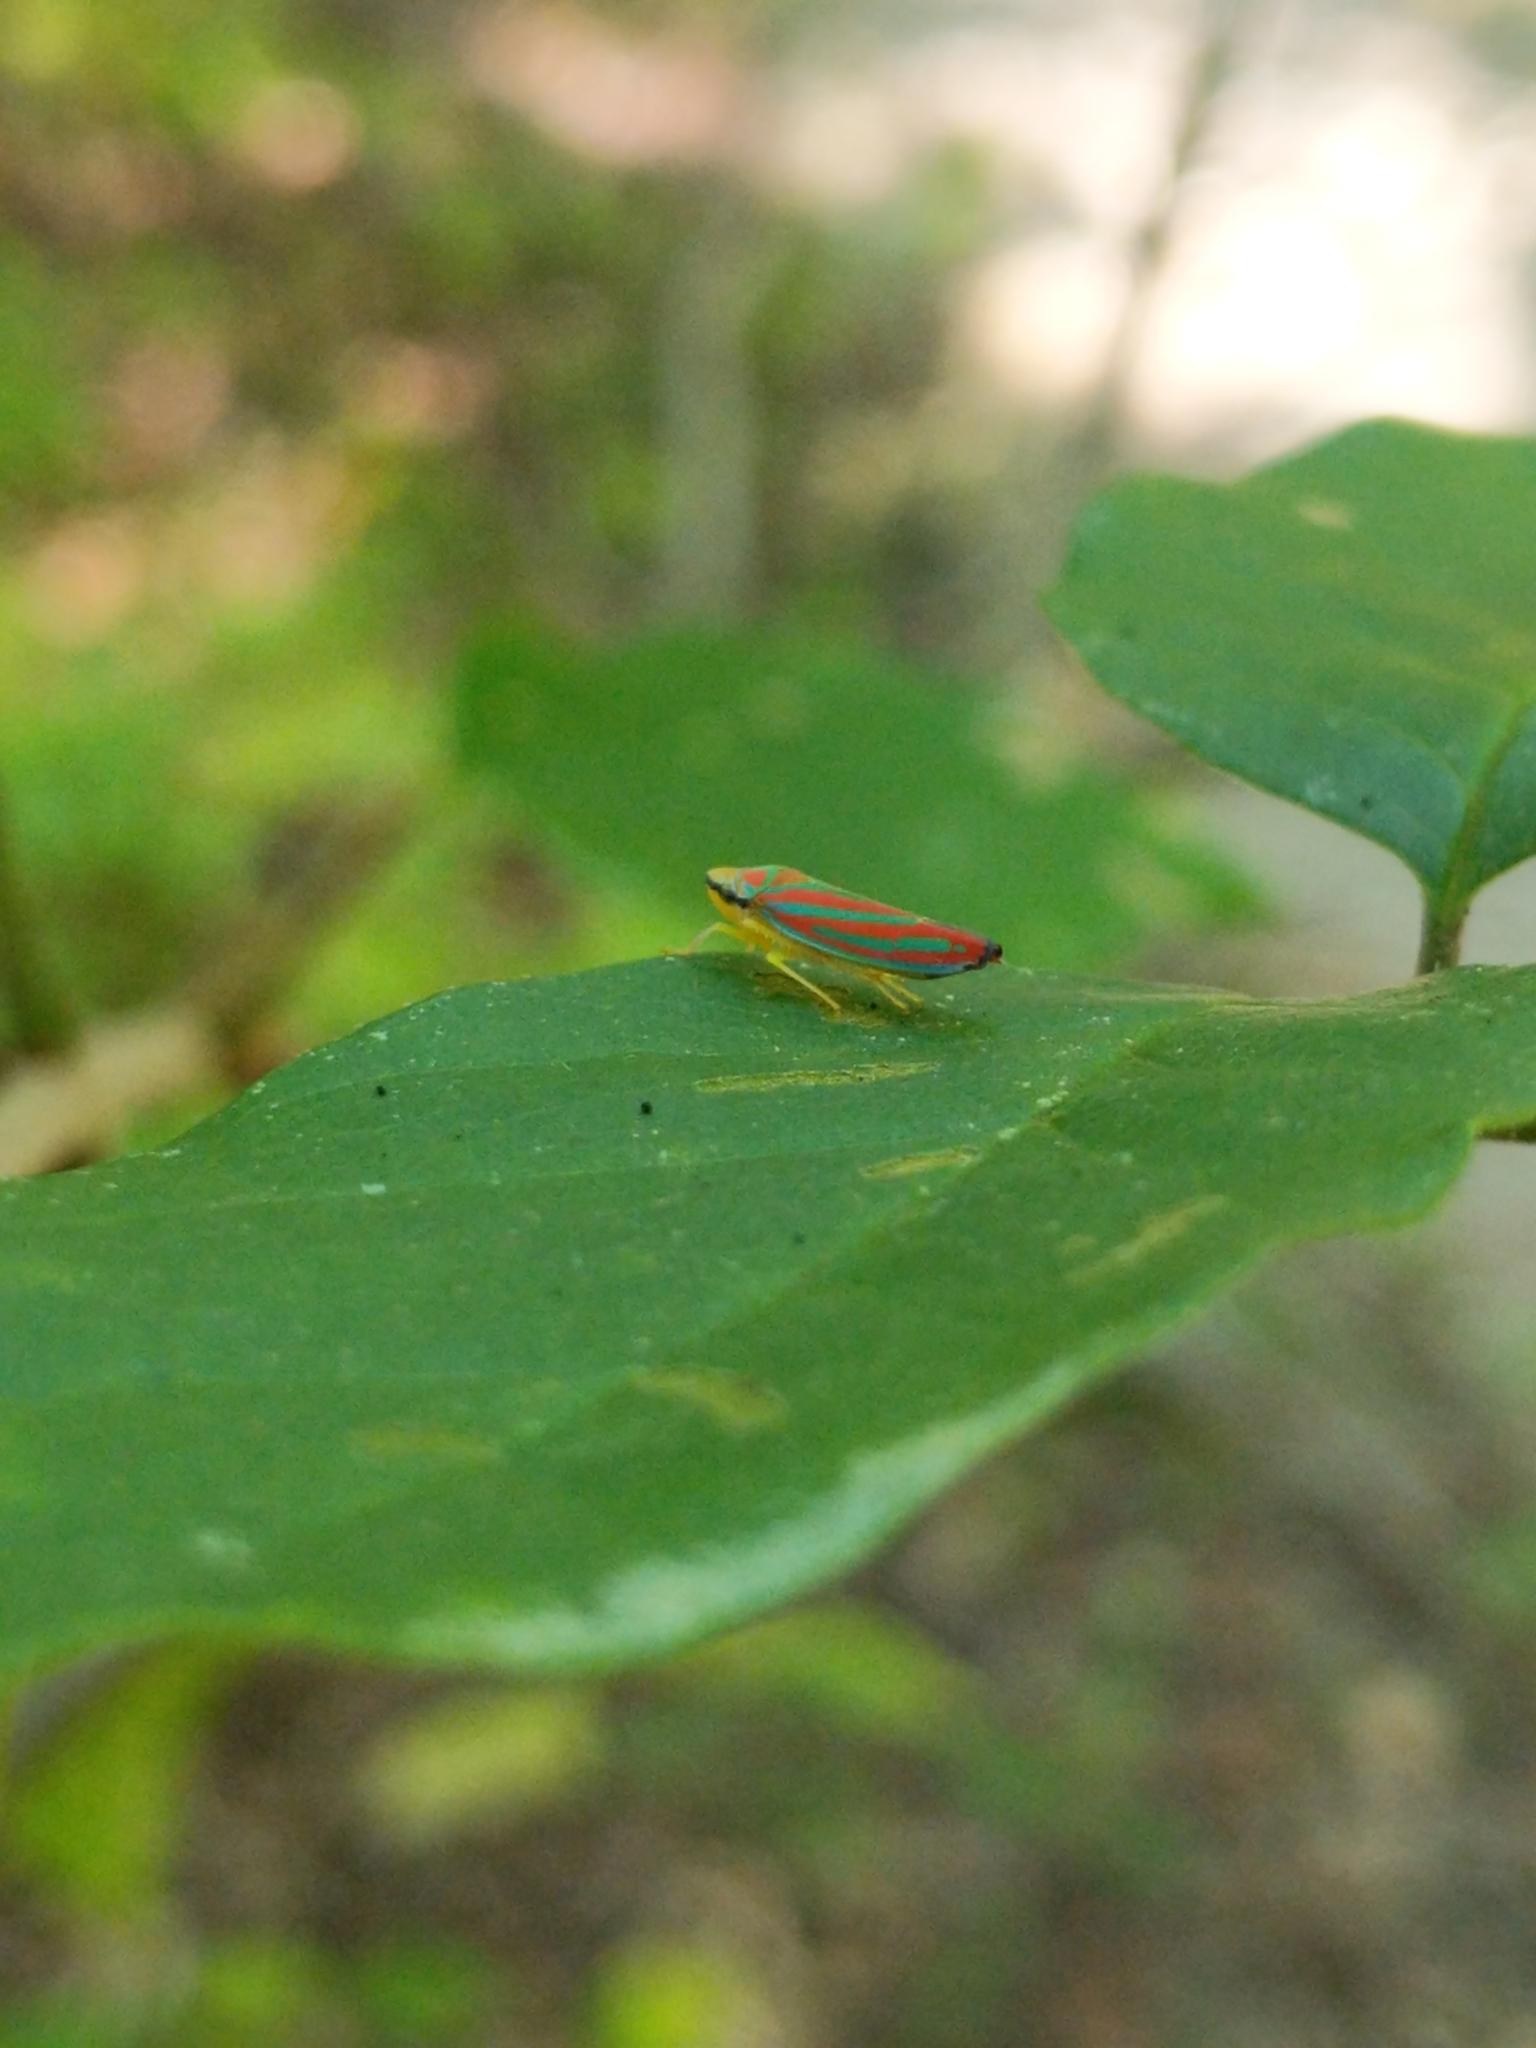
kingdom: Animalia
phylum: Arthropoda
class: Insecta
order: Hemiptera
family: Cicadellidae
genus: Graphocephala
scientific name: Graphocephala coccinea
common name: Candy-striped leafhopper
